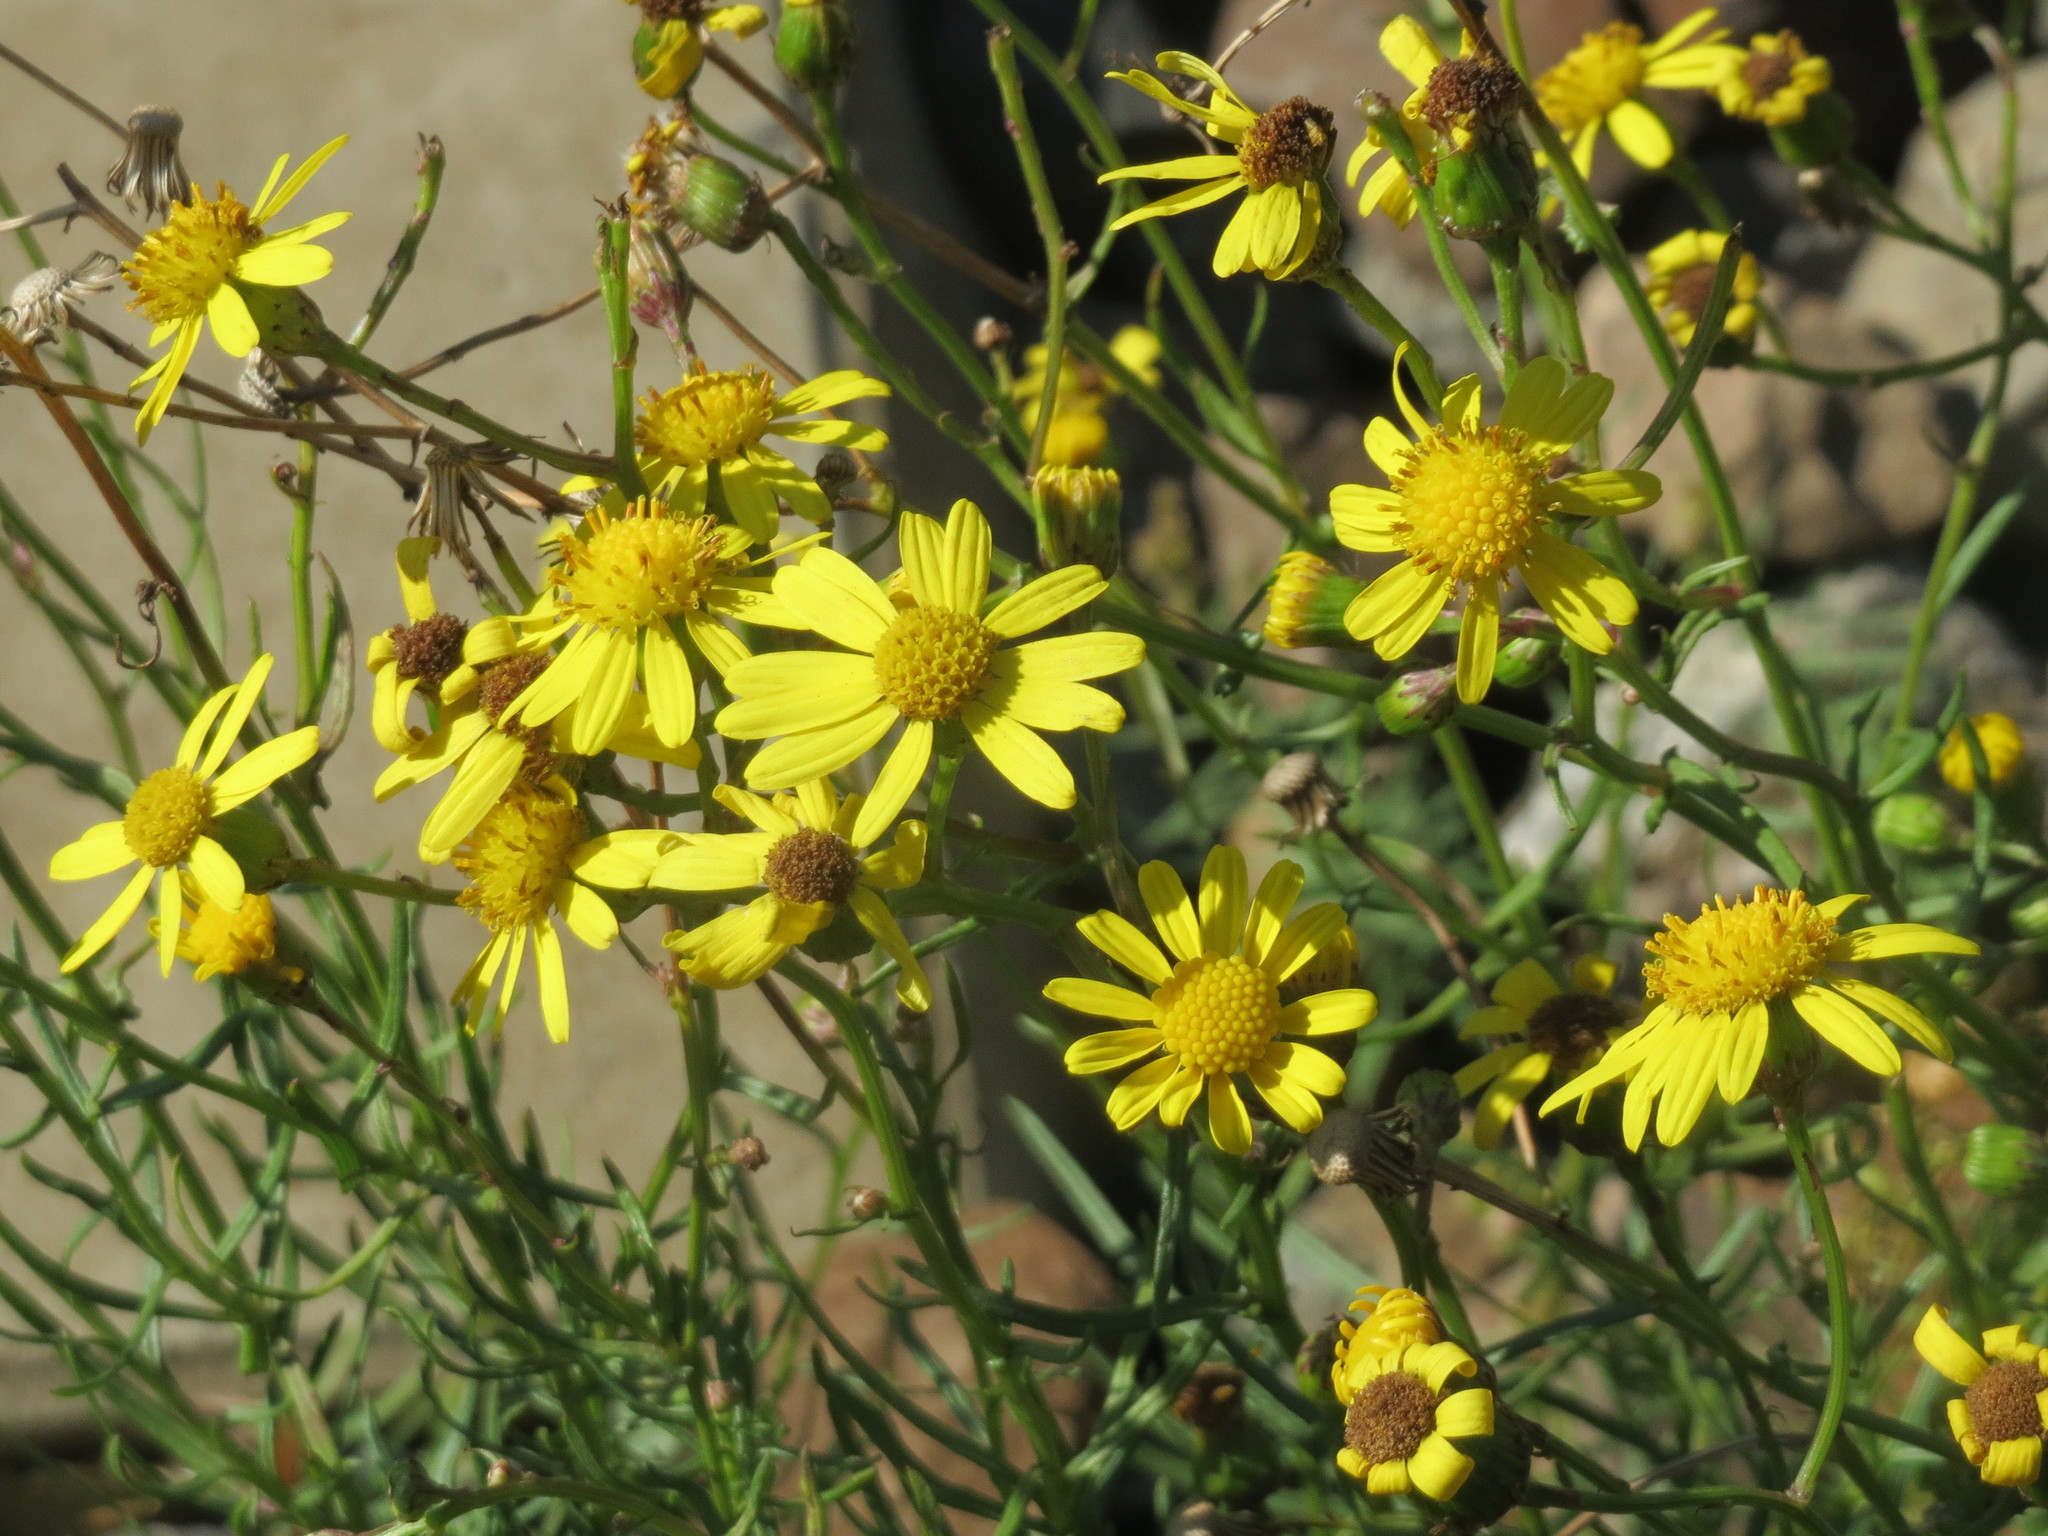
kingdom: Plantae
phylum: Tracheophyta
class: Magnoliopsida
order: Asterales
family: Asteraceae
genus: Senecio
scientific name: Senecio inaequidens
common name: Narrow-leaved ragwort
